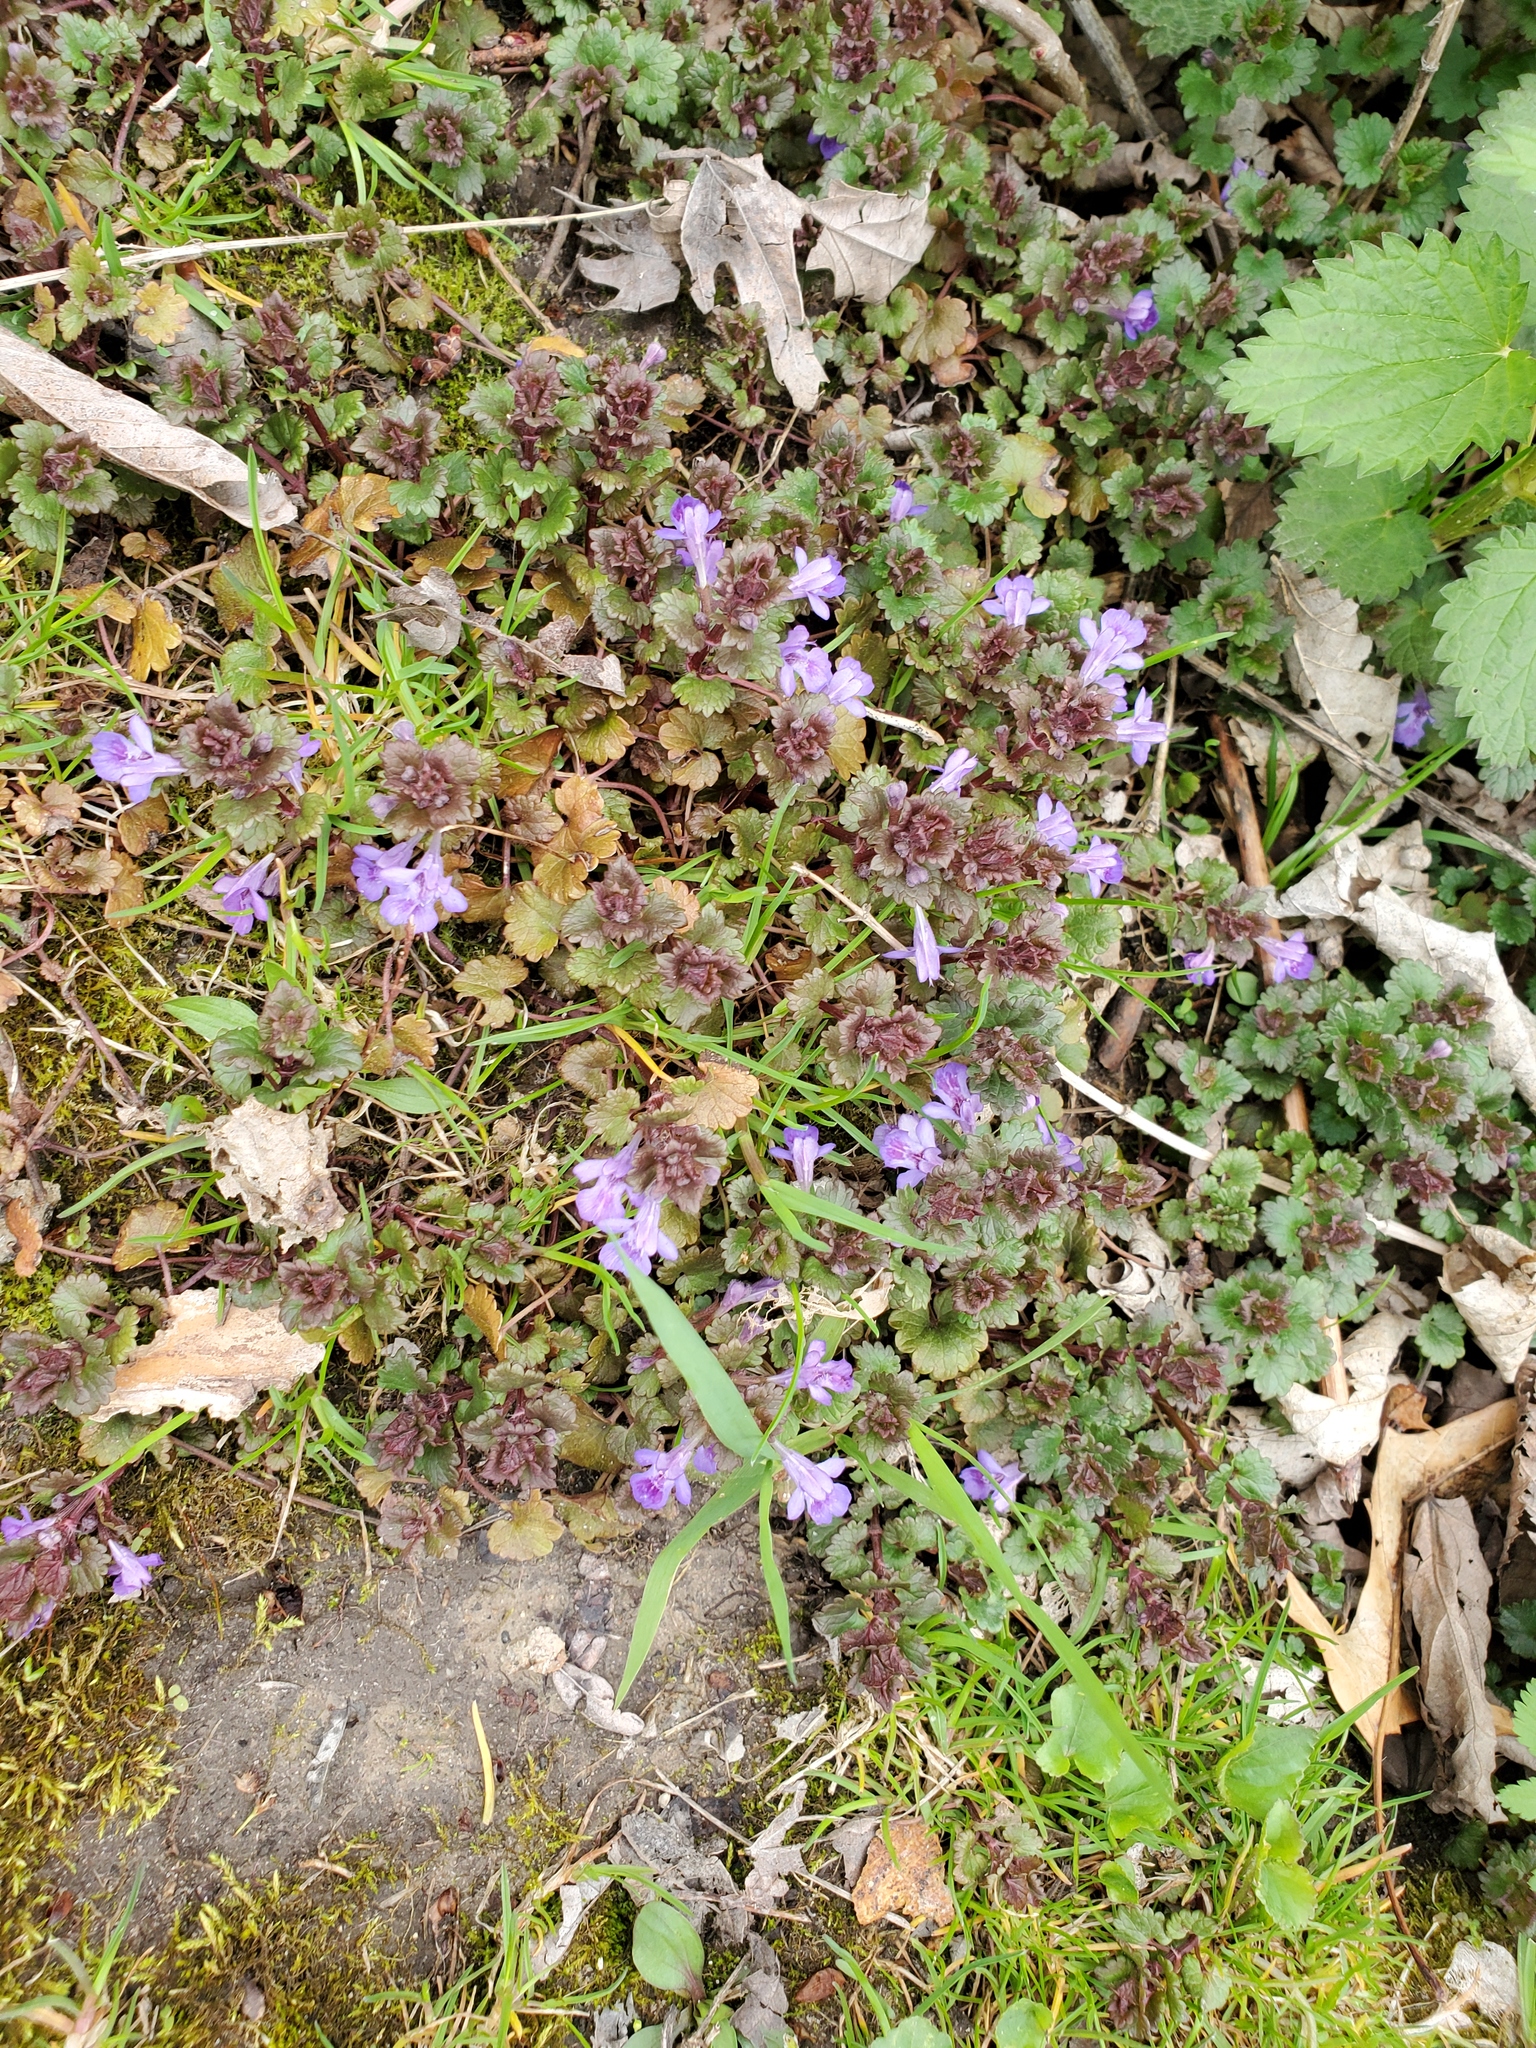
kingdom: Plantae
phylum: Tracheophyta
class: Magnoliopsida
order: Lamiales
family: Lamiaceae
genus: Glechoma
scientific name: Glechoma hederacea
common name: Ground ivy
